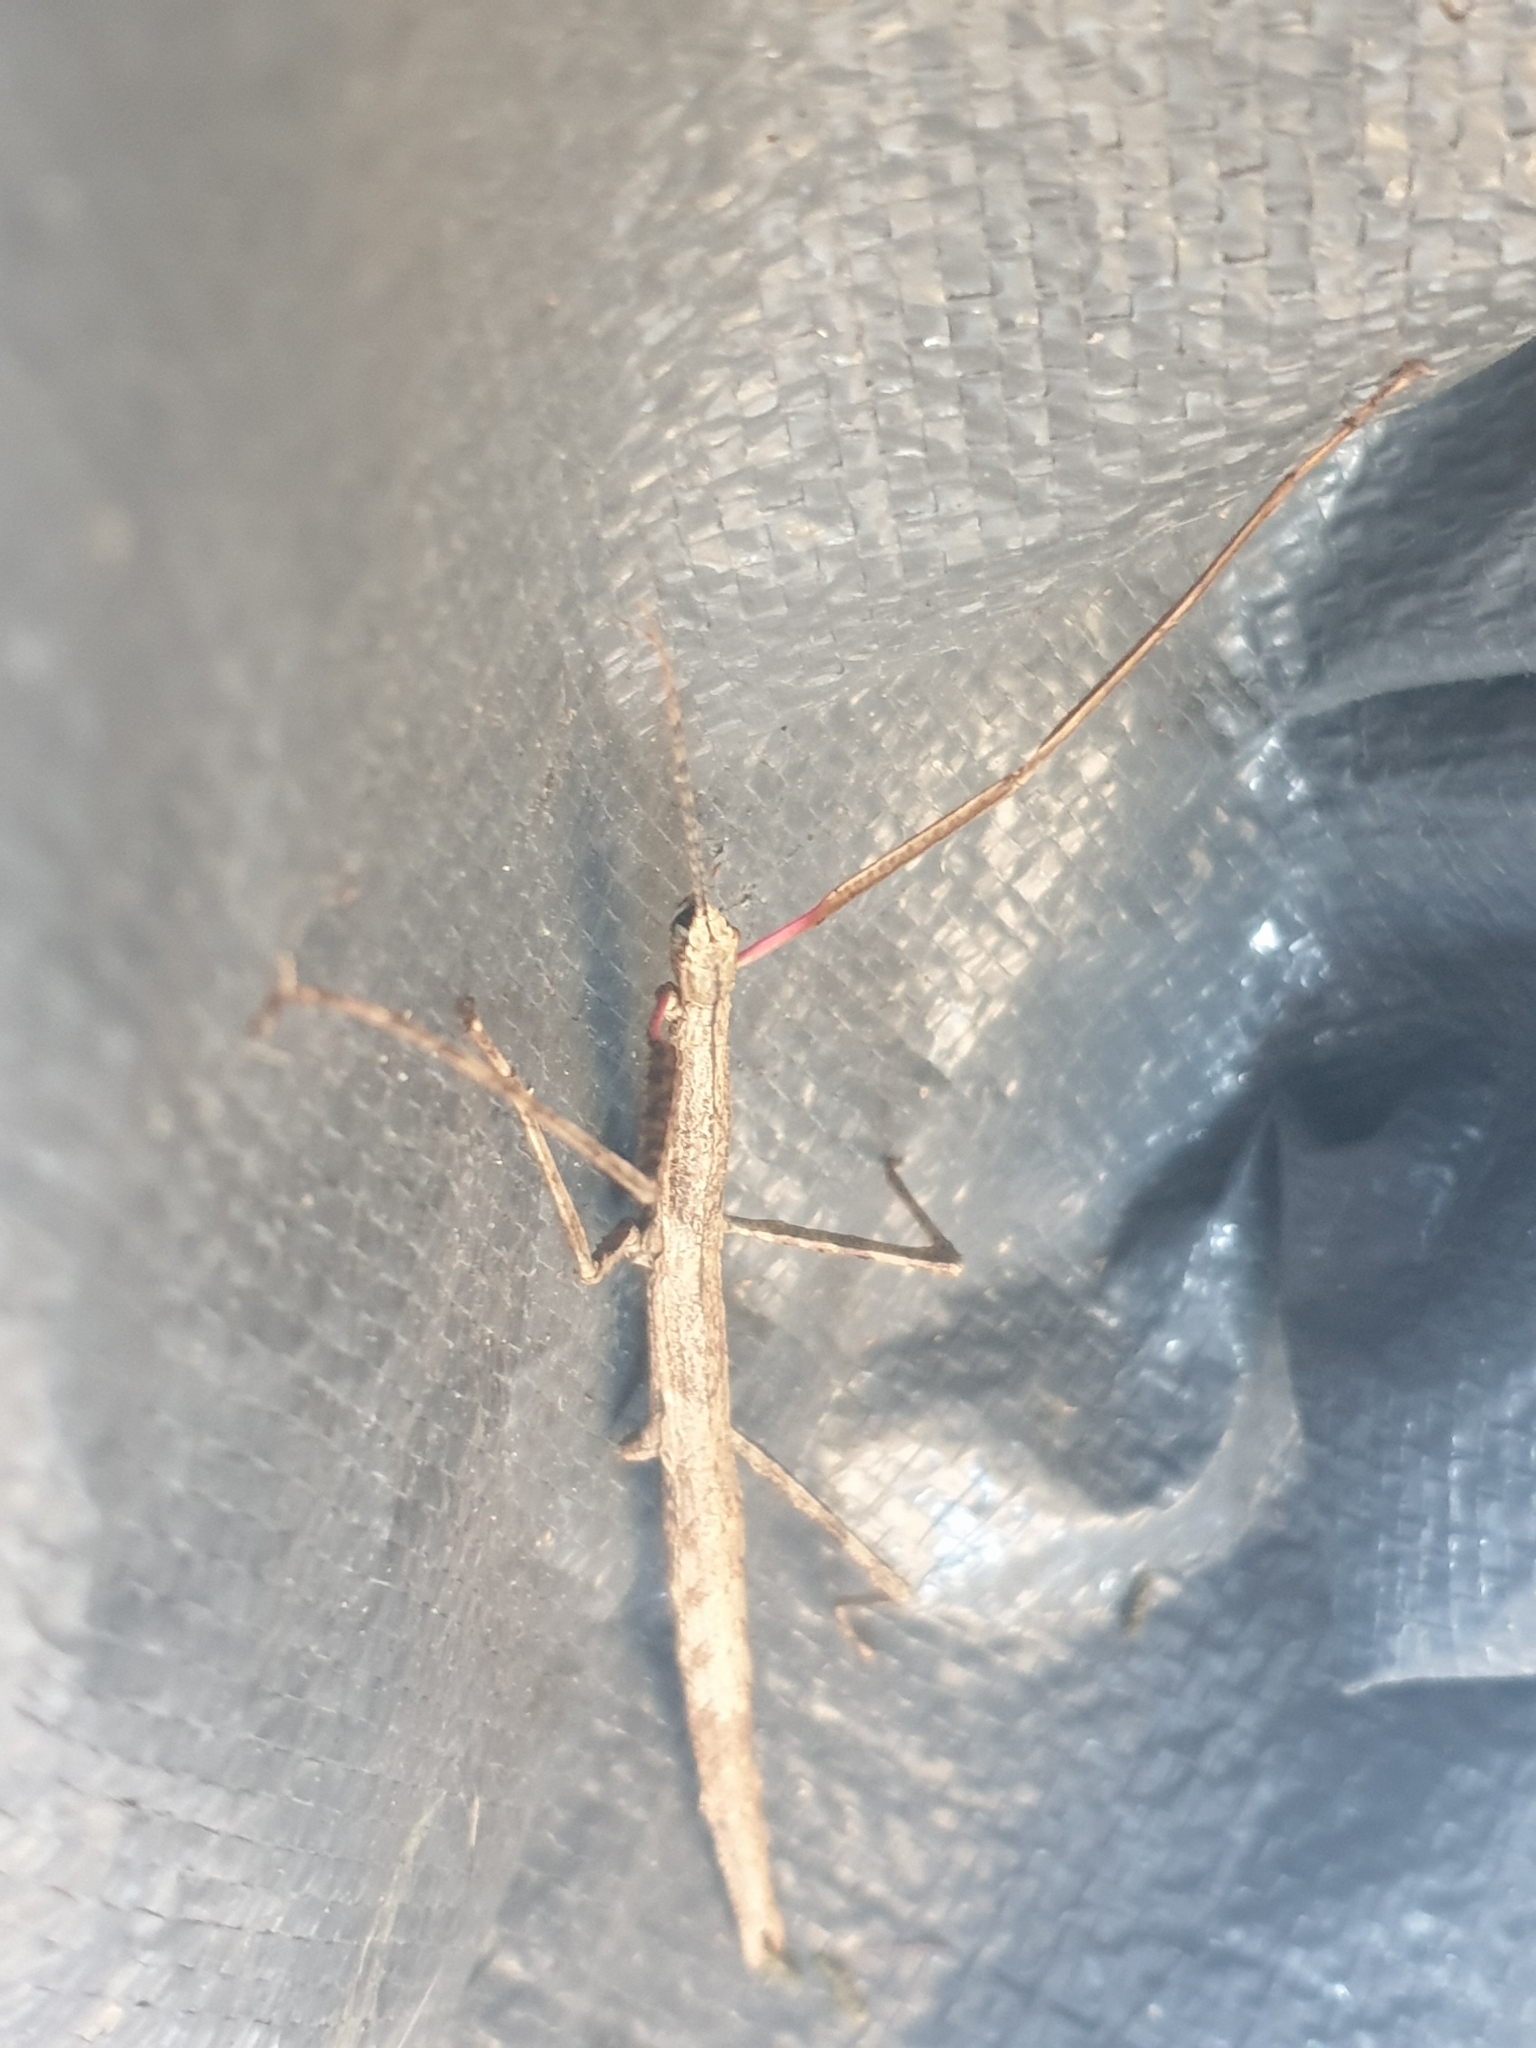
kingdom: Animalia
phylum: Arthropoda
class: Insecta
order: Phasmida
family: Phasmatidae
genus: Clitarchus
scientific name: Clitarchus hookeri
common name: Smooth stick insect
